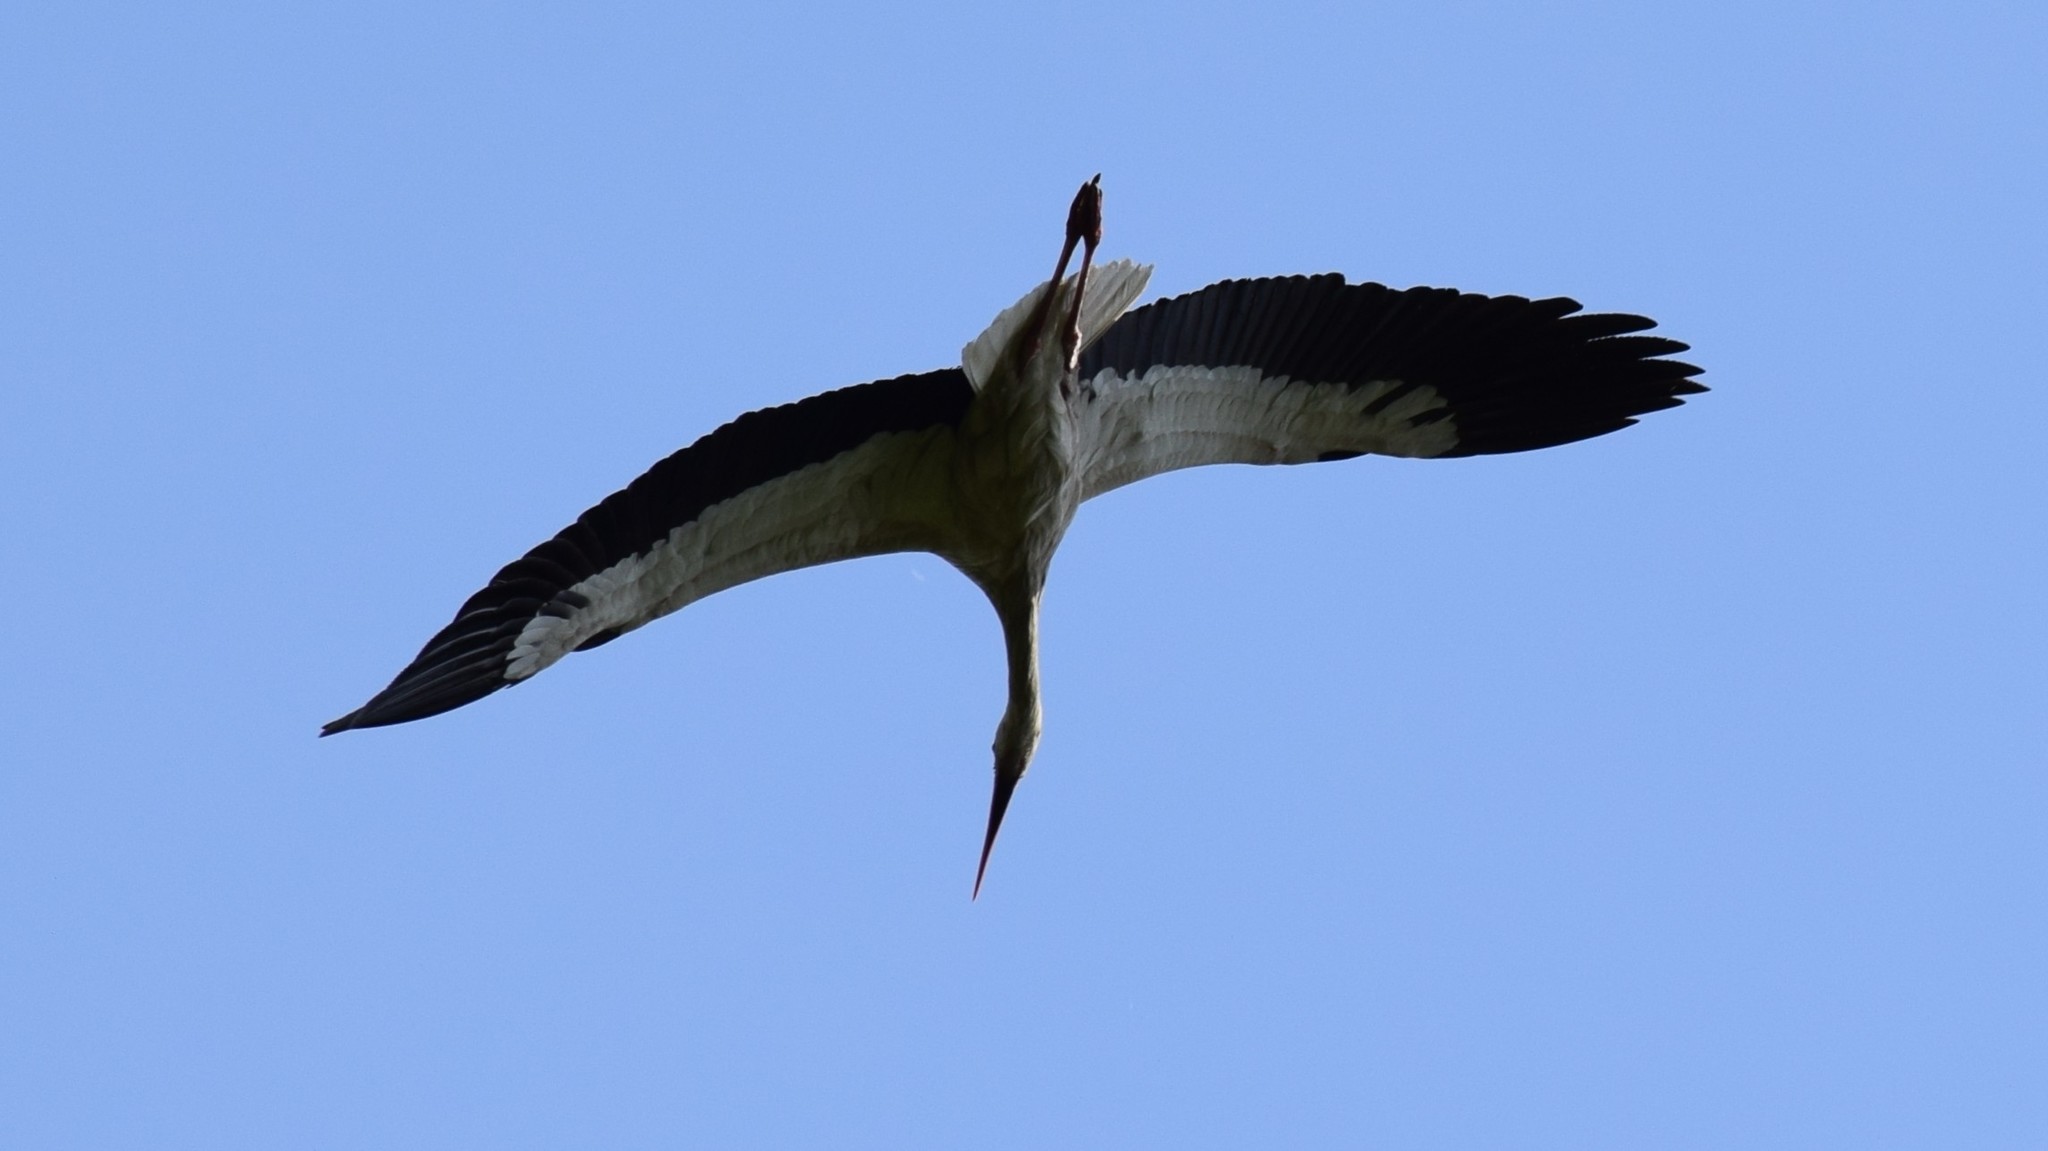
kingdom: Animalia
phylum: Chordata
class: Aves
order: Ciconiiformes
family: Ciconiidae
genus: Ciconia
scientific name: Ciconia ciconia
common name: White stork
